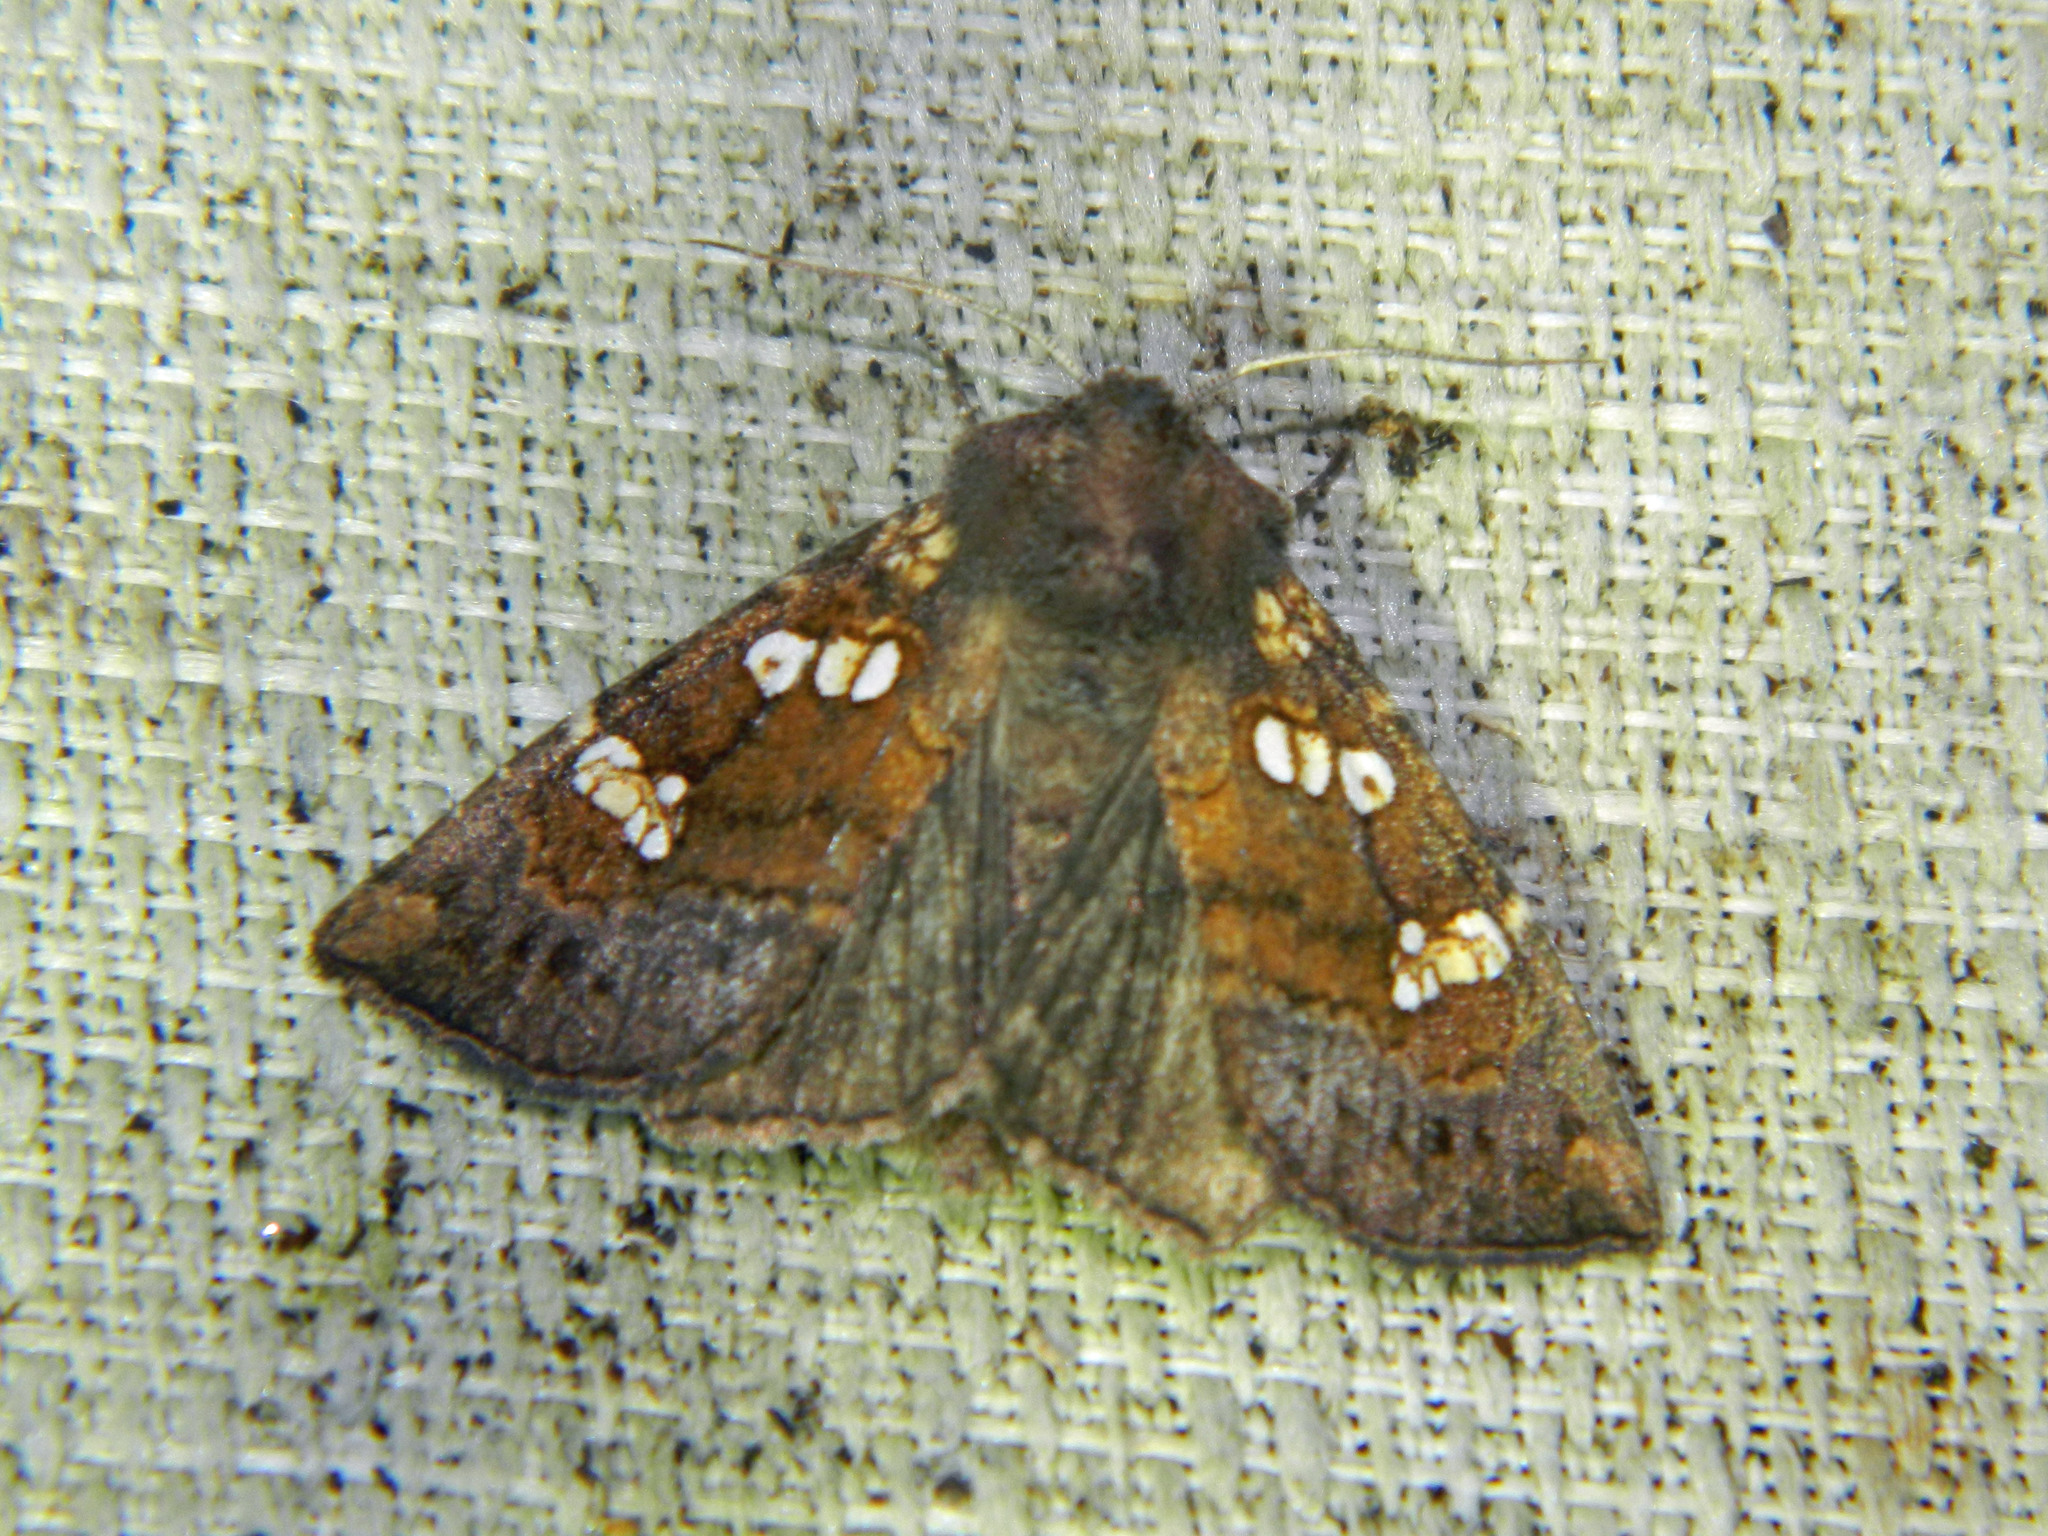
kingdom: Animalia
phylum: Arthropoda
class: Insecta
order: Lepidoptera
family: Noctuidae
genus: Papaipema
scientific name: Papaipema unimoda
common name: Meadow rue borer moth
